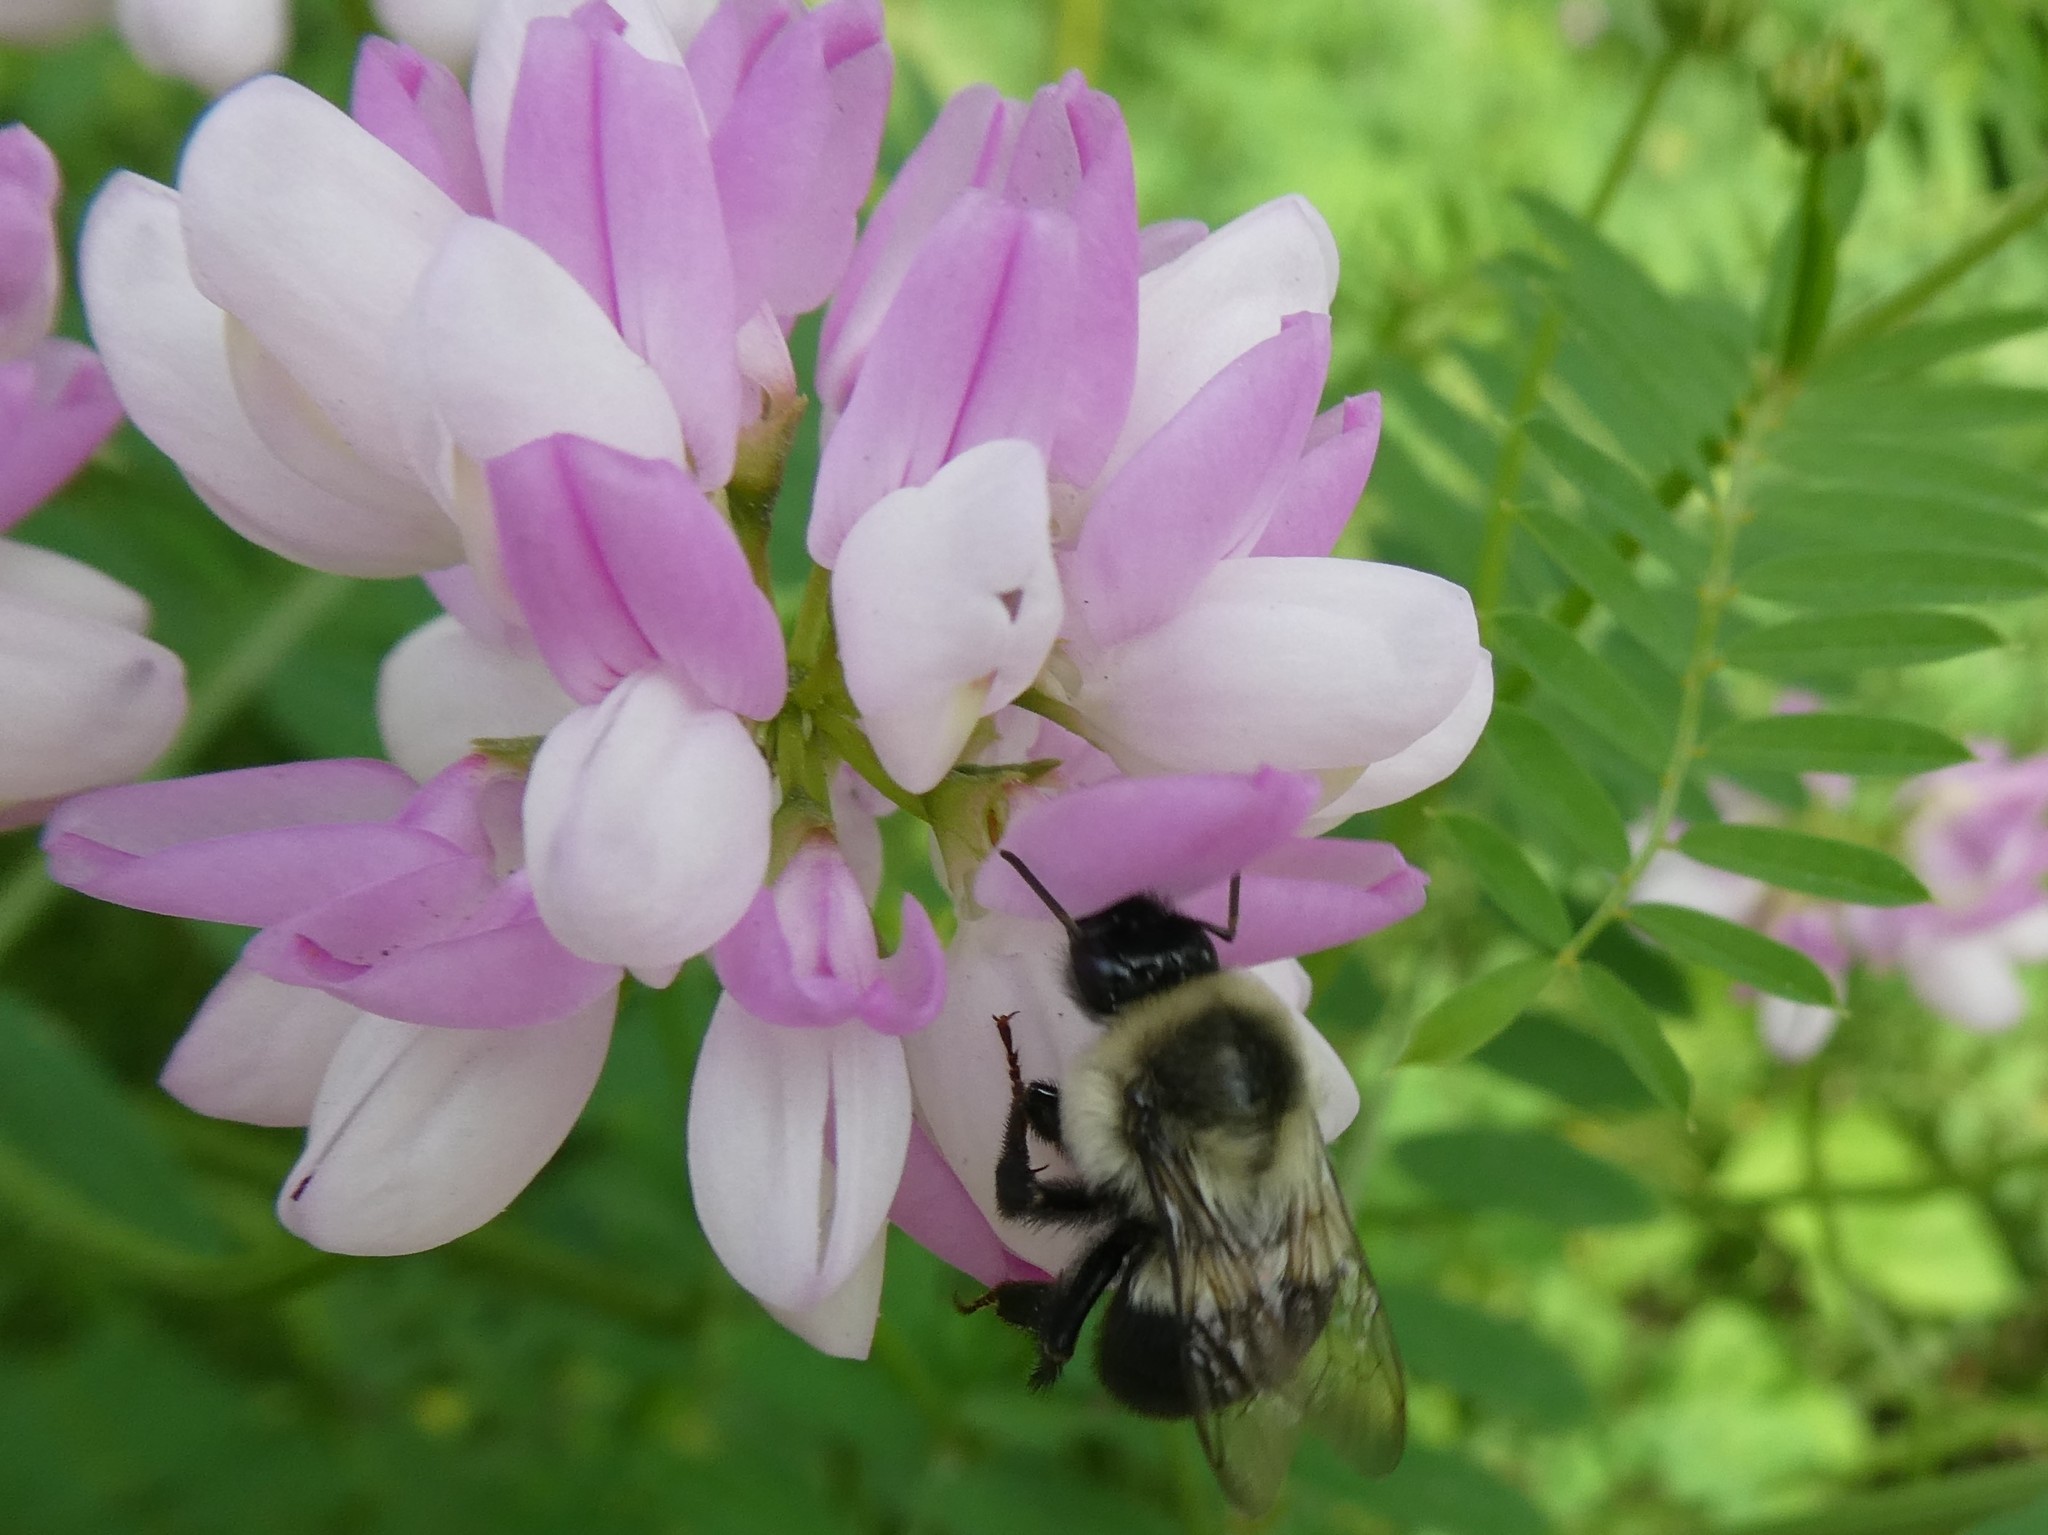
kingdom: Animalia
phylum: Arthropoda
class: Insecta
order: Hymenoptera
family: Apidae
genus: Bombus
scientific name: Bombus impatiens
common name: Common eastern bumble bee
